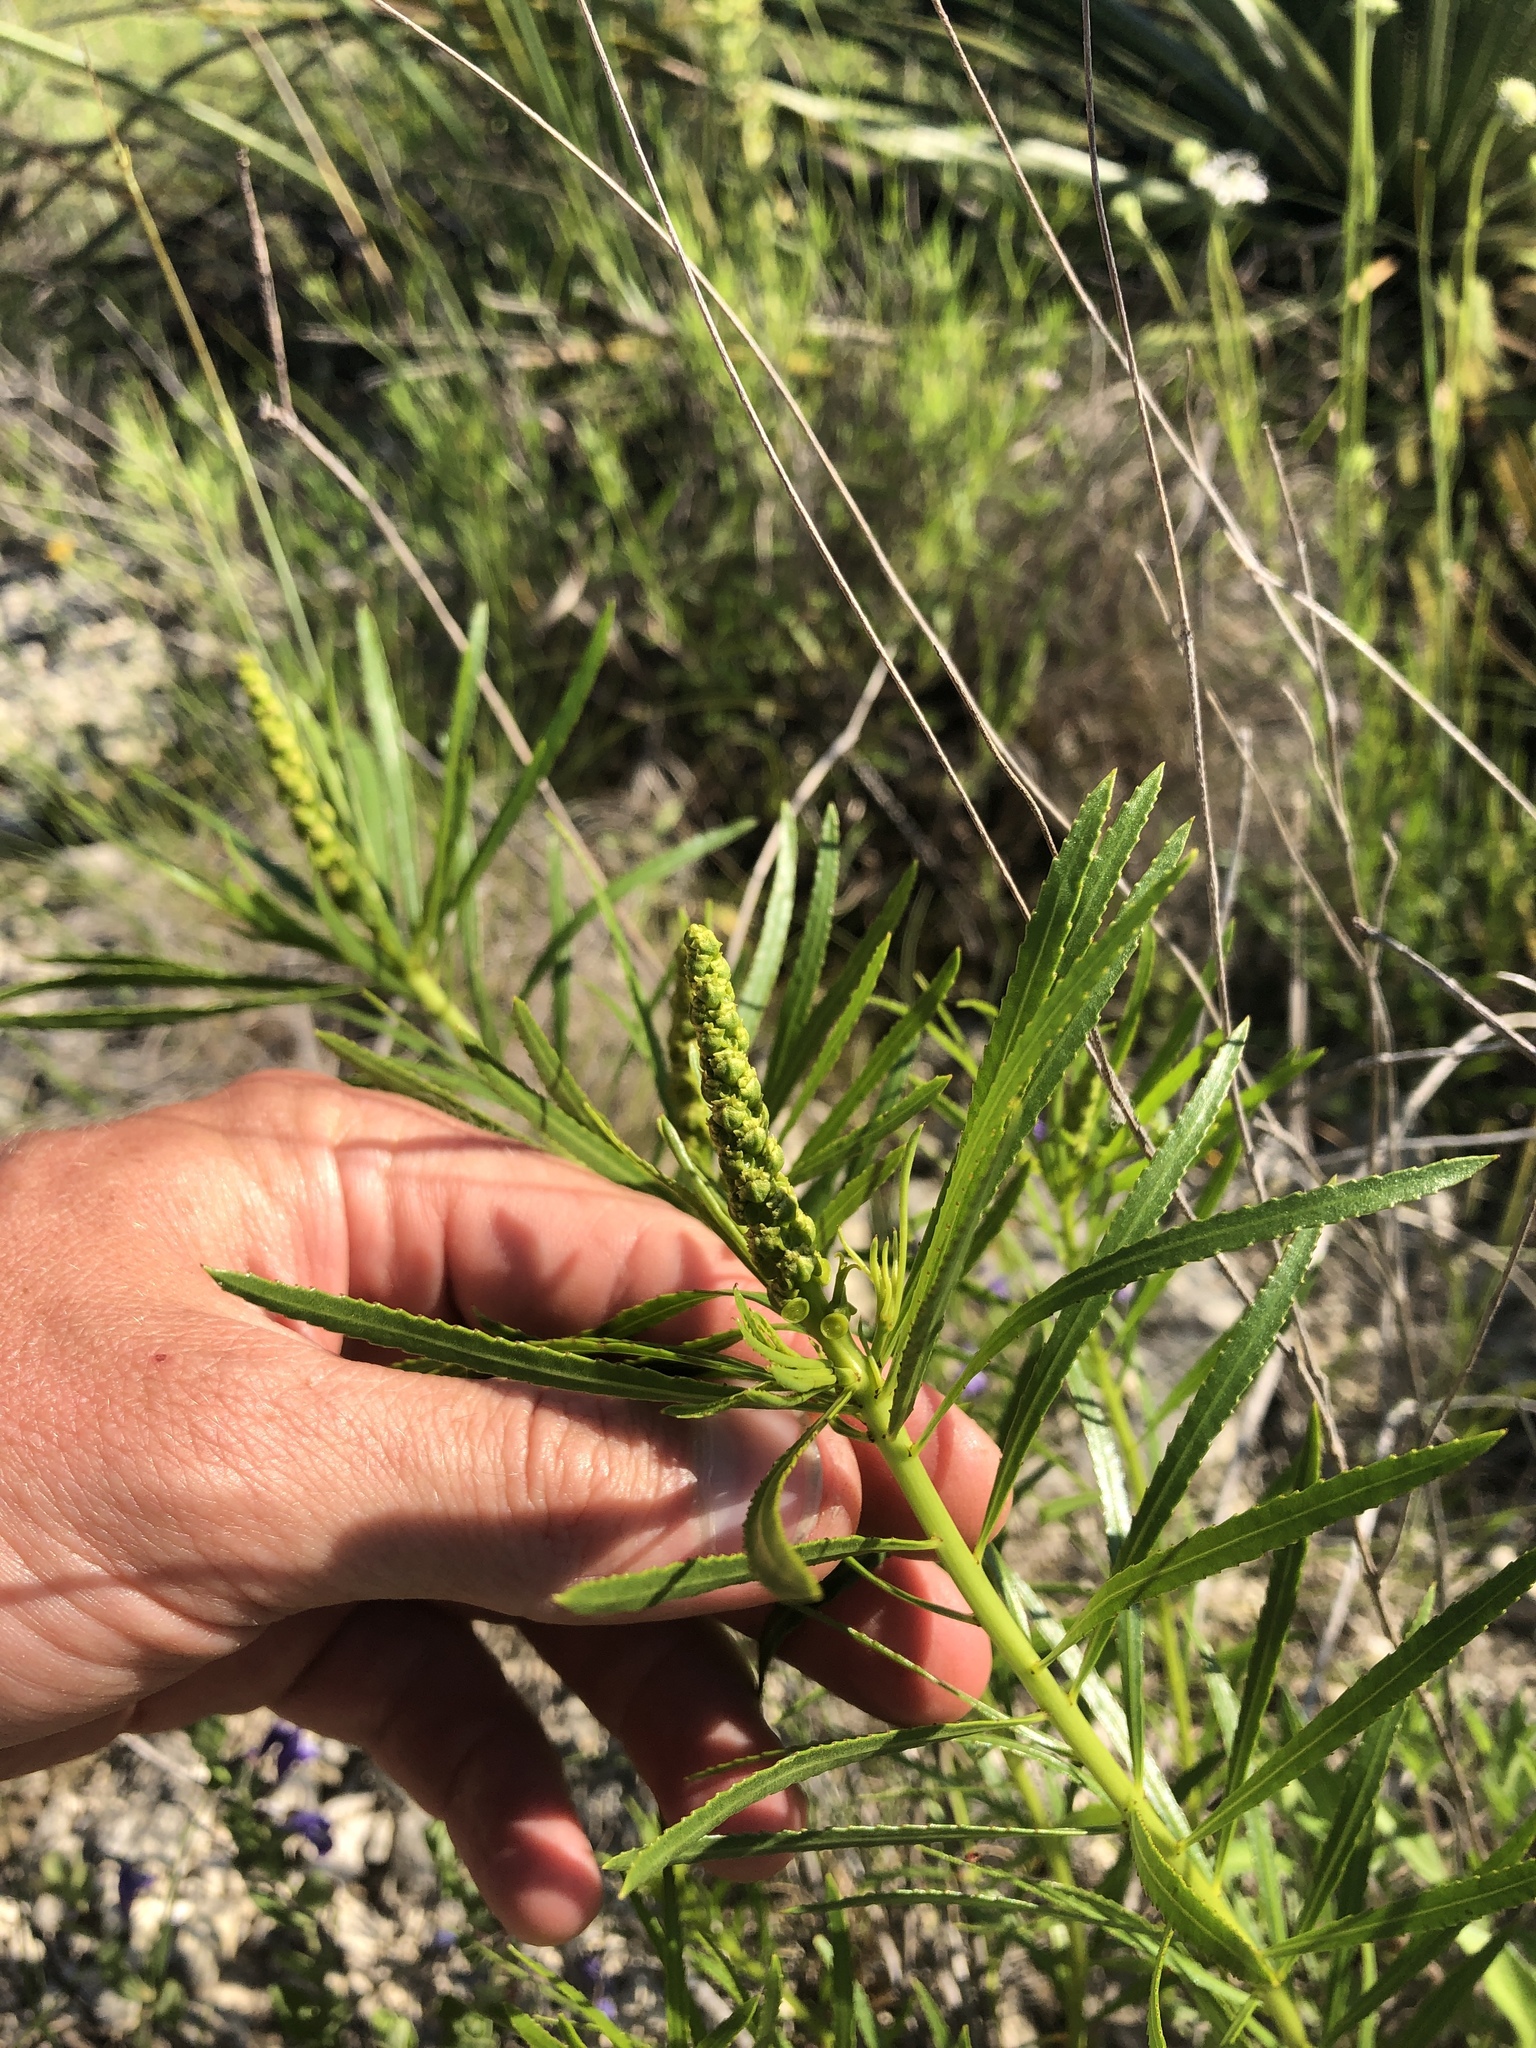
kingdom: Plantae
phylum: Tracheophyta
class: Magnoliopsida
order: Malpighiales
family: Euphorbiaceae
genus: Stillingia
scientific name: Stillingia texana
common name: Texas stillingia
